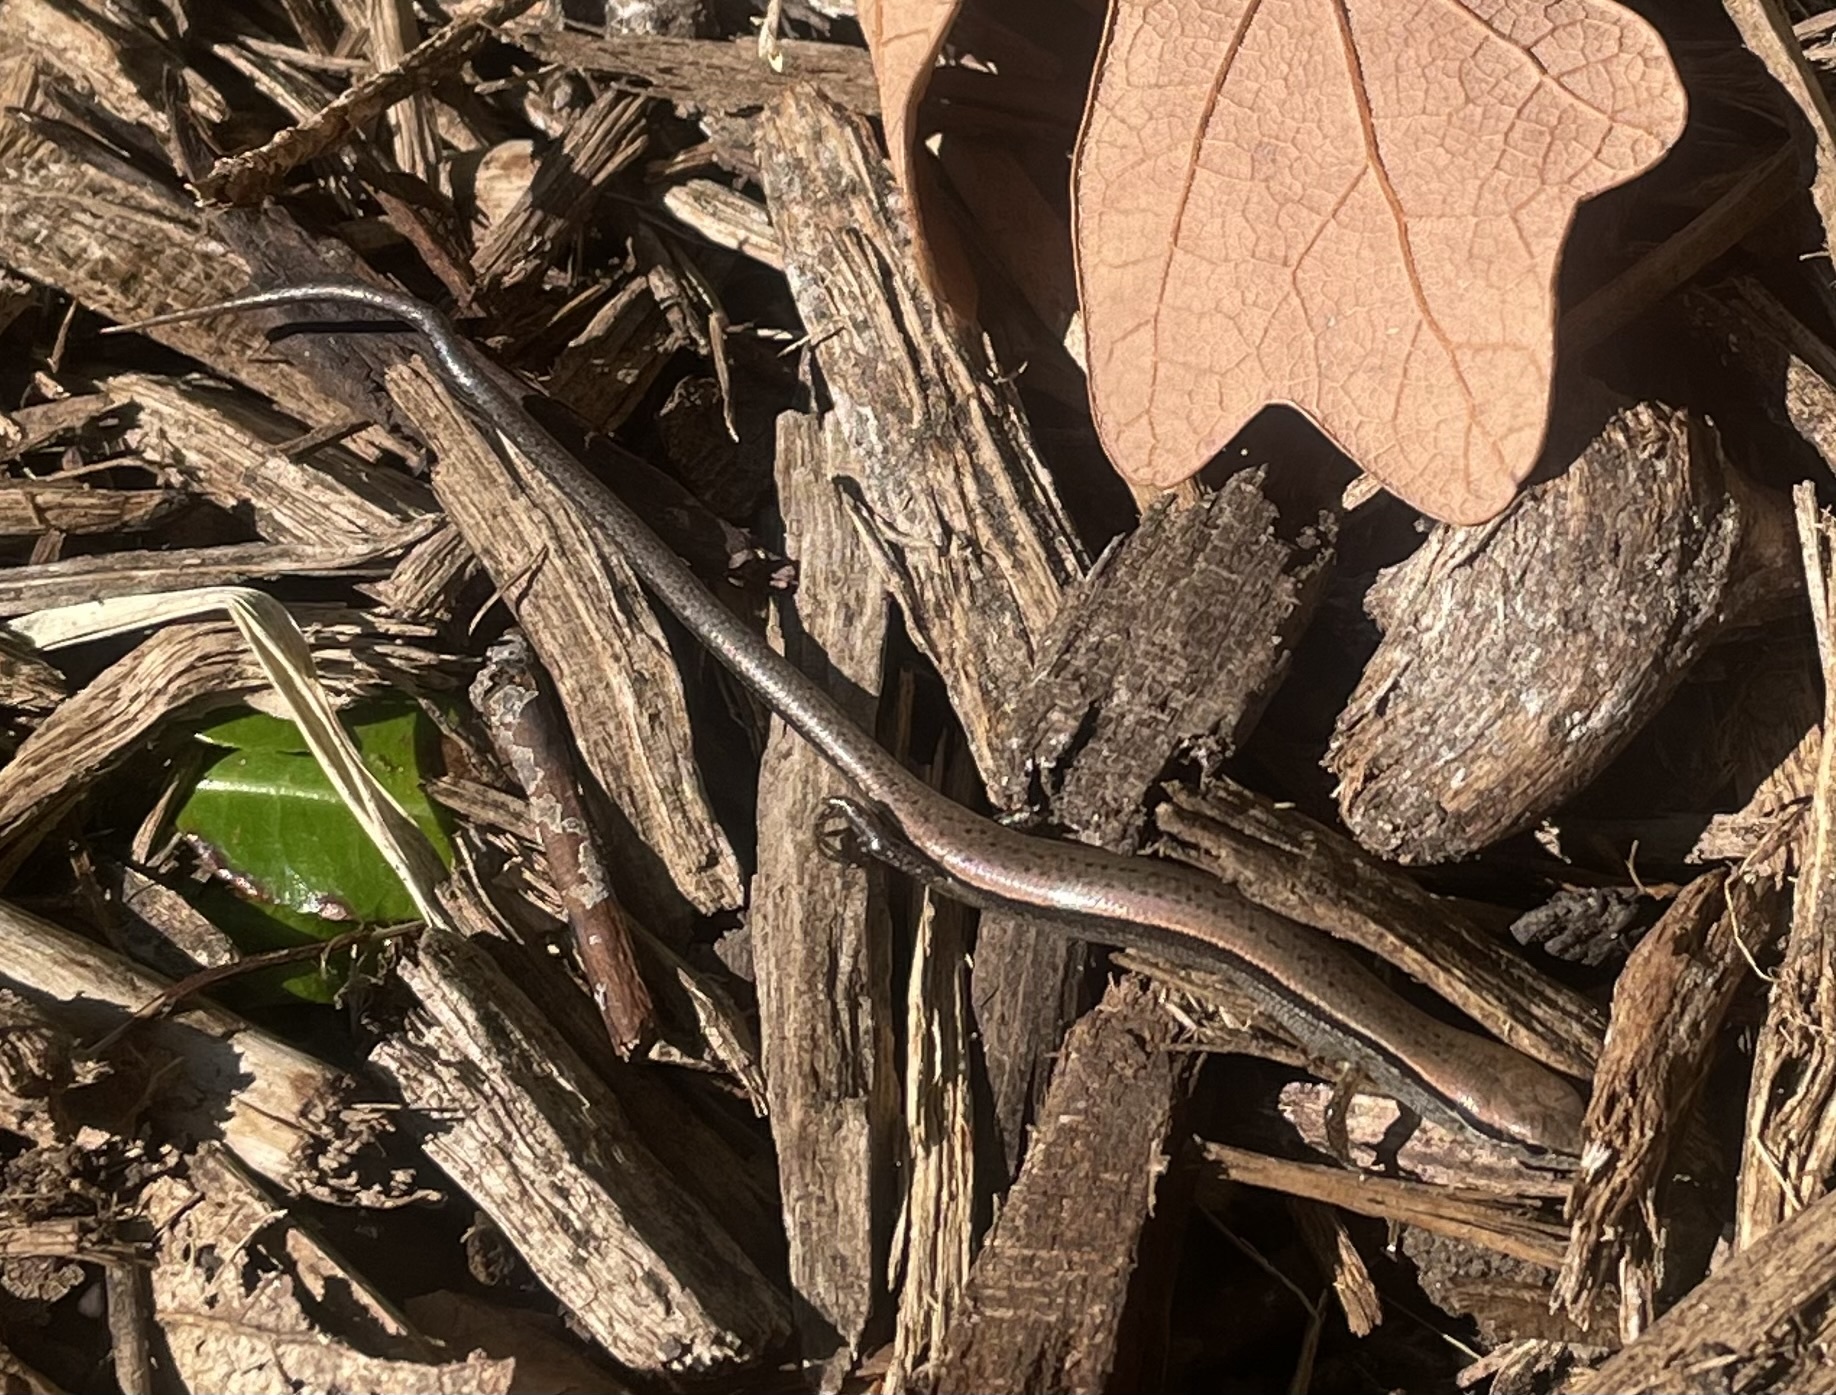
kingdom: Animalia
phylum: Chordata
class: Squamata
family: Scincidae
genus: Scincella
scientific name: Scincella lateralis
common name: Ground skink
